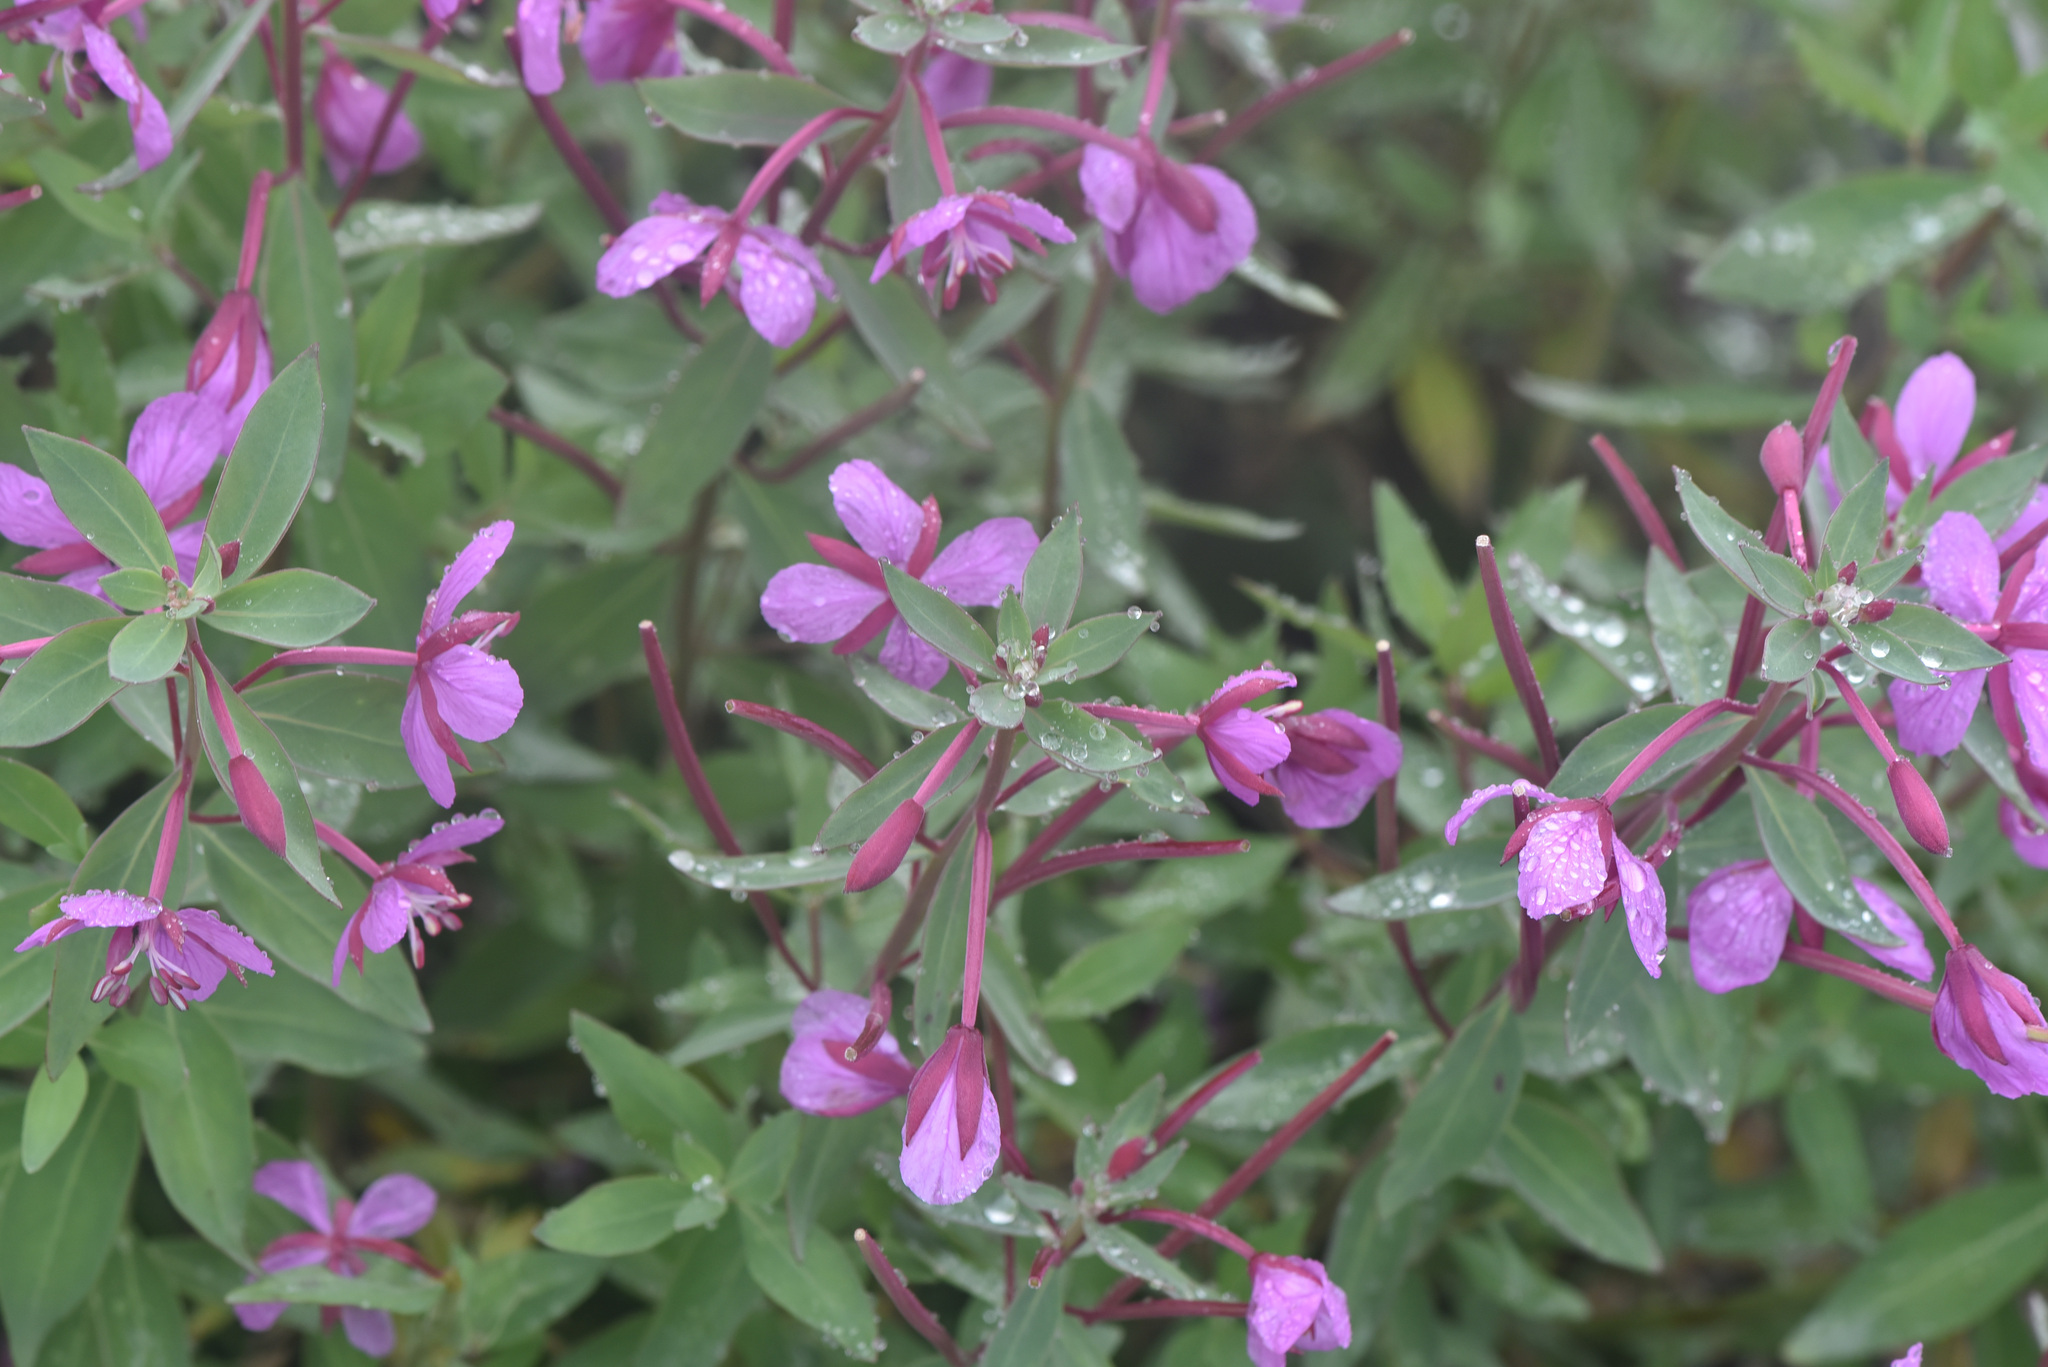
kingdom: Plantae
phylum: Tracheophyta
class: Magnoliopsida
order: Myrtales
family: Onagraceae
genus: Chamaenerion
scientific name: Chamaenerion latifolium
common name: Dwarf fireweed
